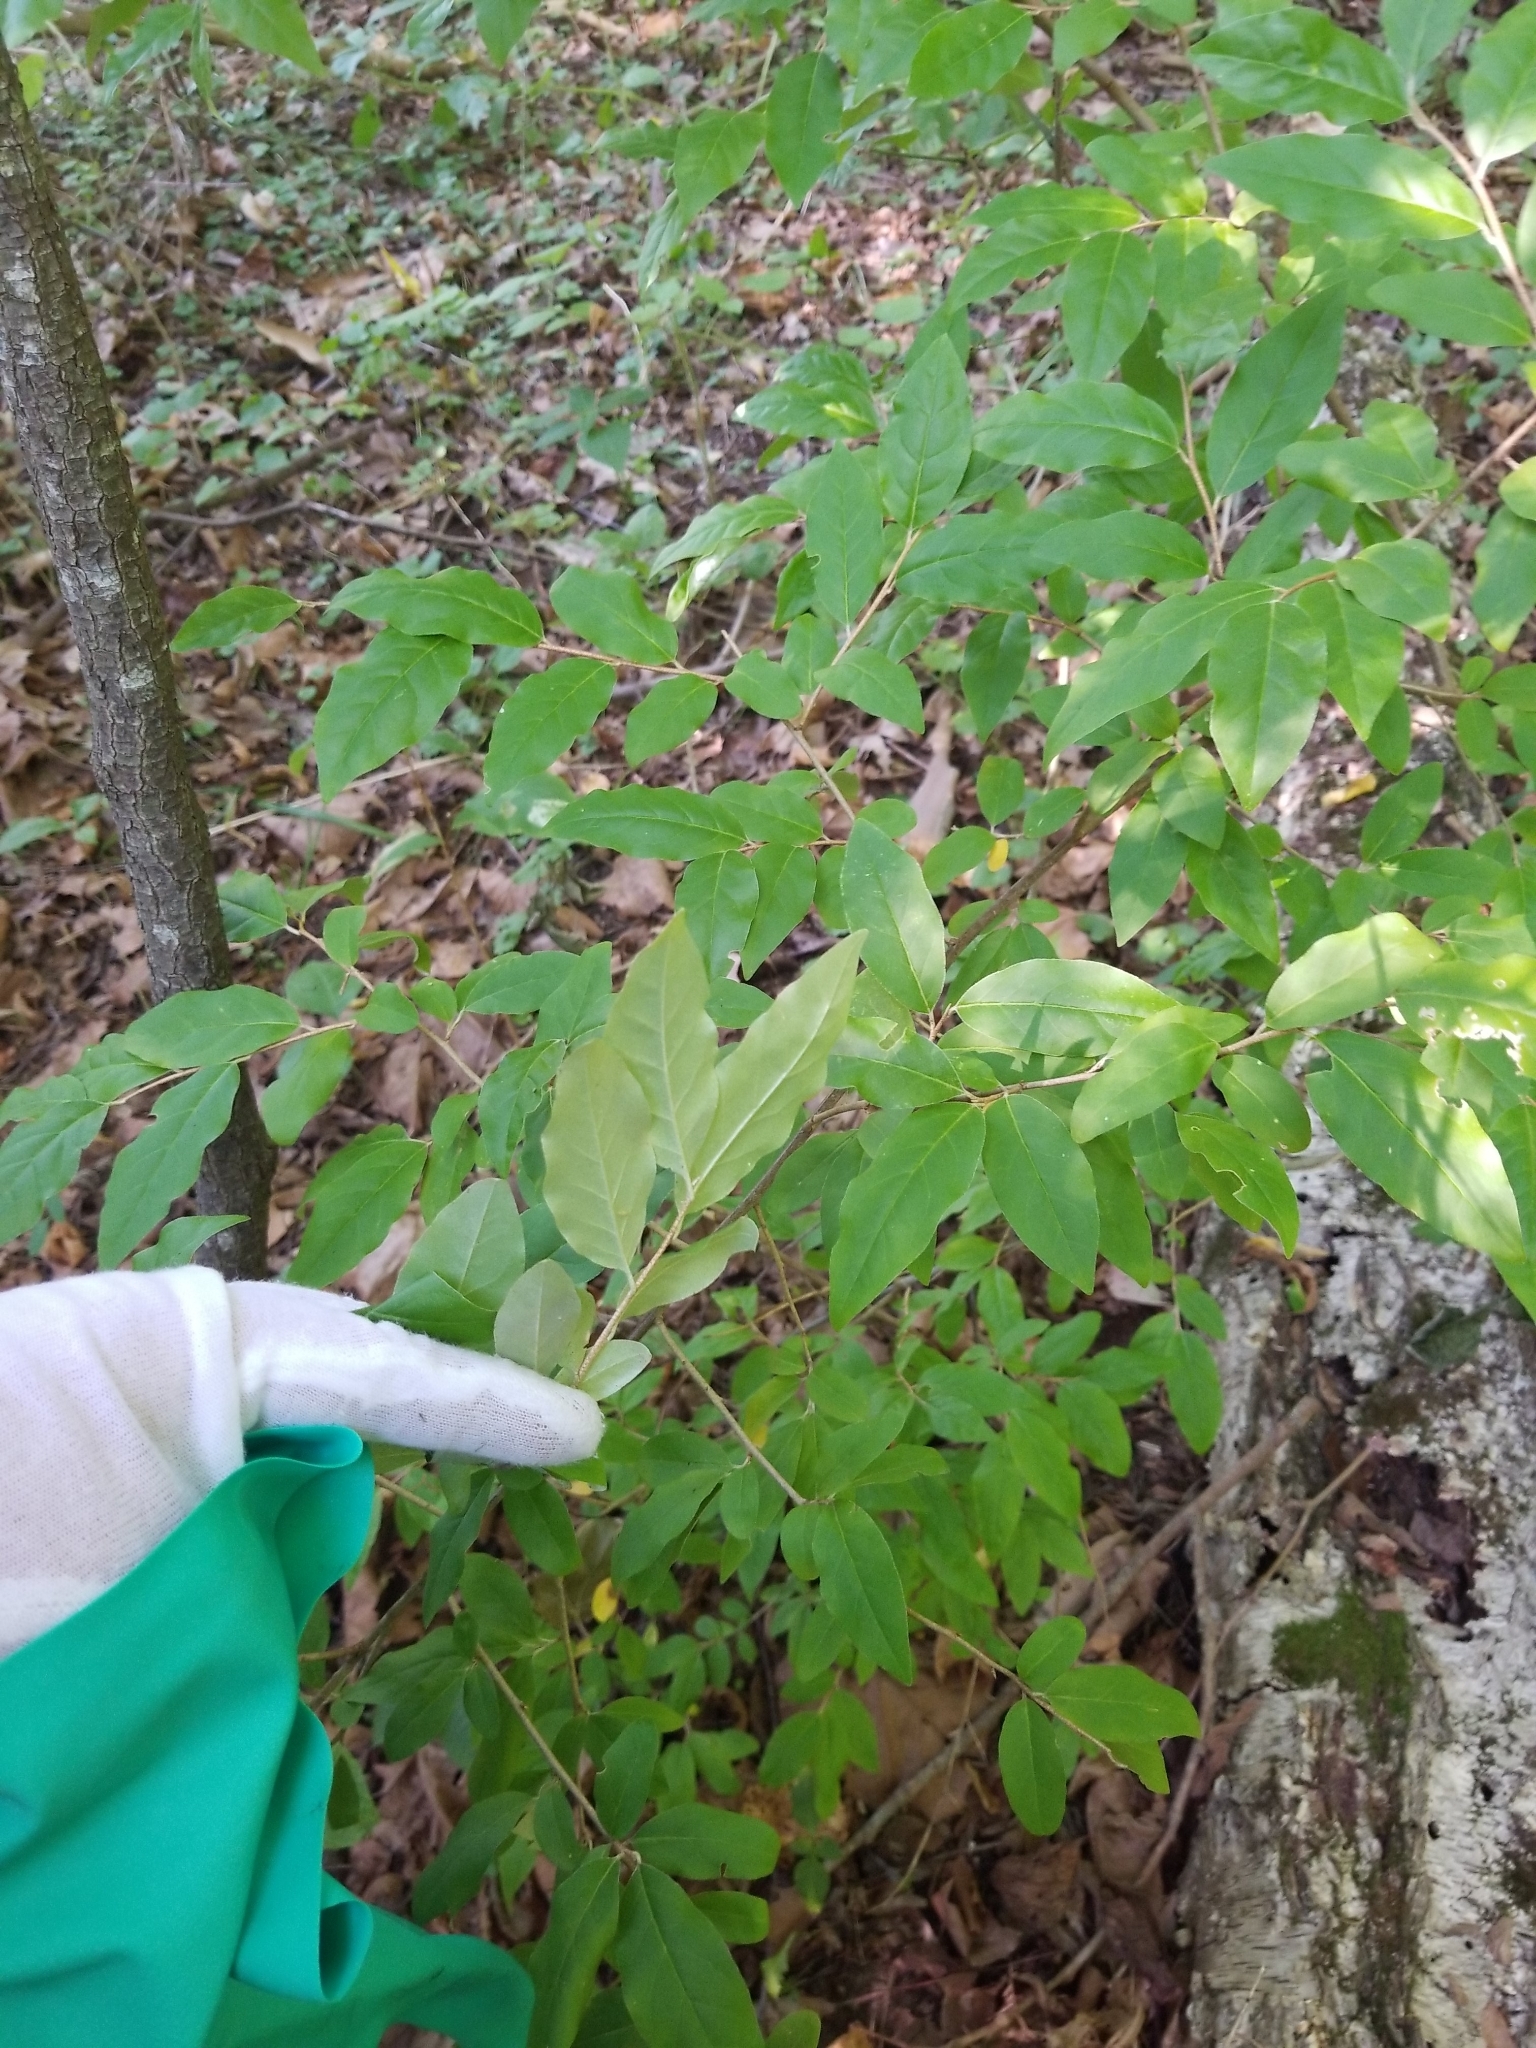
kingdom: Plantae
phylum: Tracheophyta
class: Magnoliopsida
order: Rosales
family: Elaeagnaceae
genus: Elaeagnus
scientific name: Elaeagnus umbellata
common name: Autumn olive
